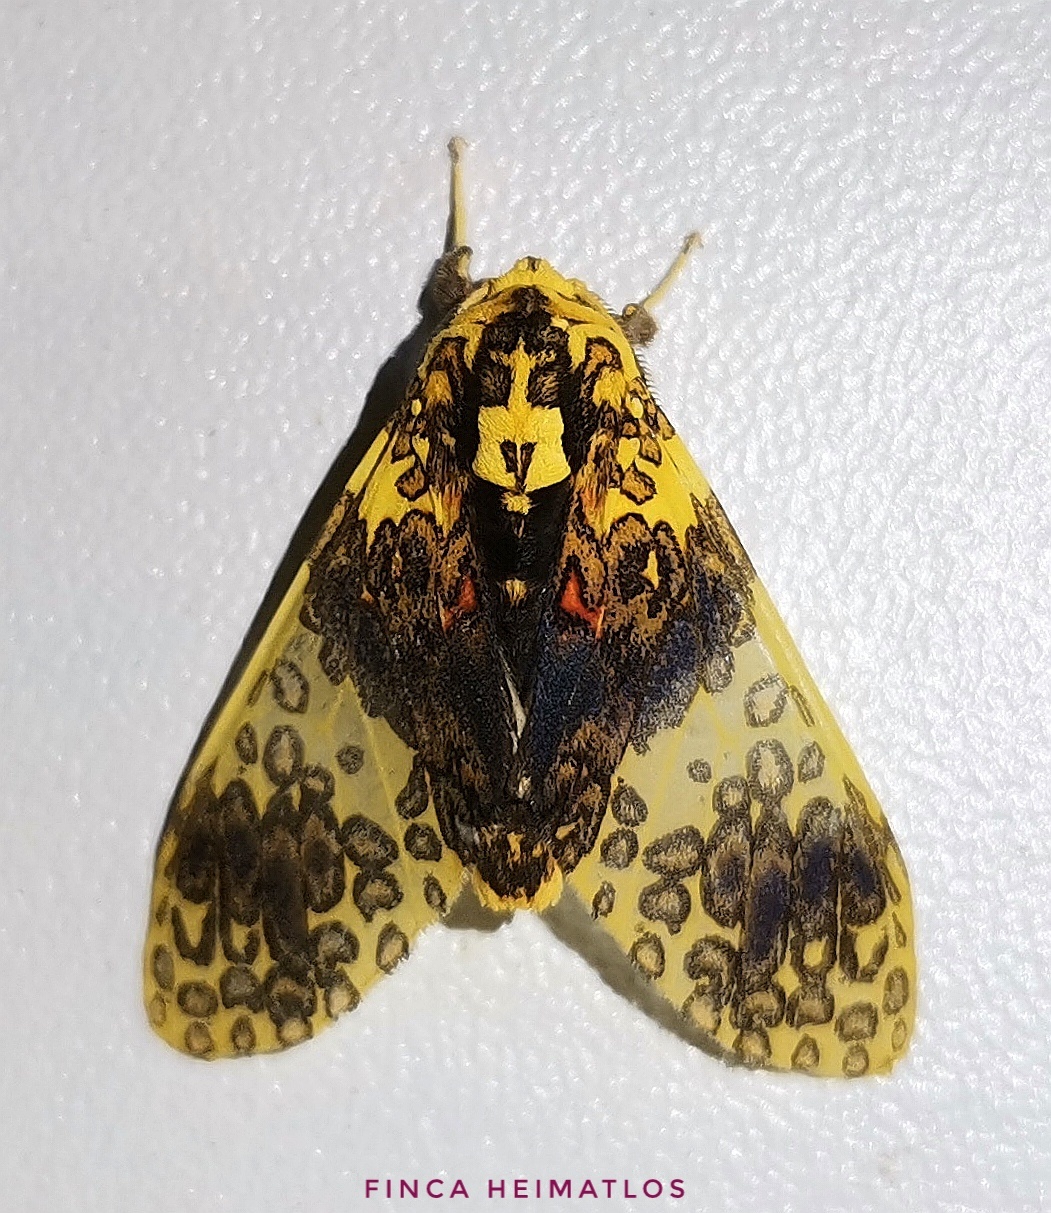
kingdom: Animalia
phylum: Arthropoda
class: Insecta
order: Lepidoptera
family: Erebidae
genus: Amaxia
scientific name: Amaxia violacea
